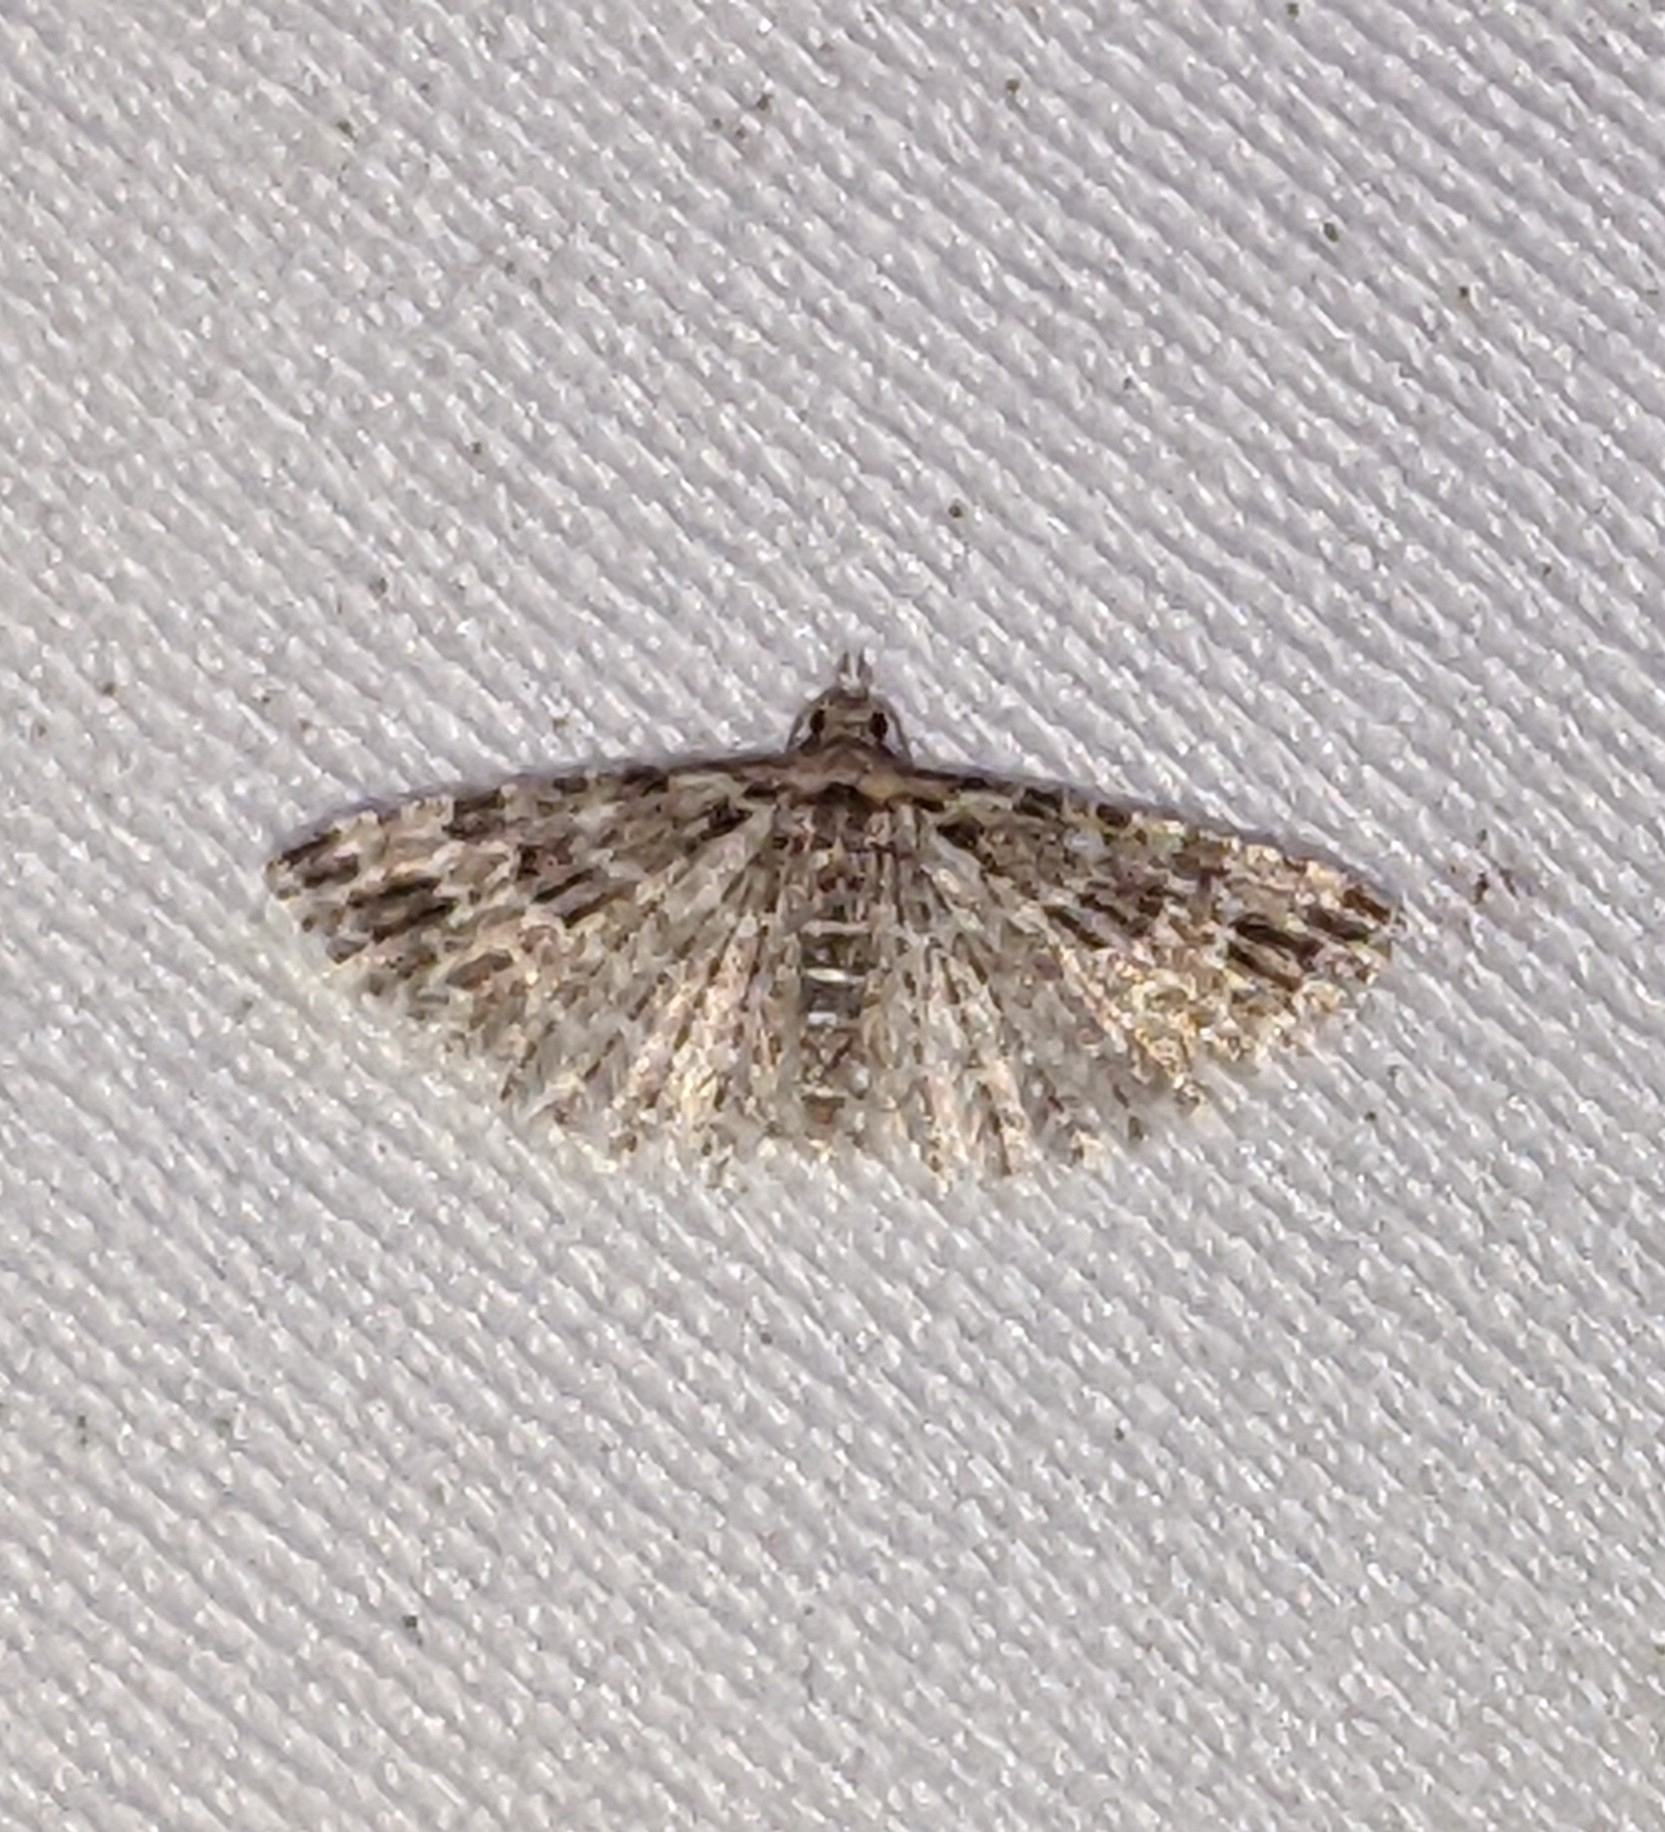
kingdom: Animalia
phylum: Arthropoda
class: Insecta
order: Lepidoptera
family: Alucitidae
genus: Alucita
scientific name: Alucita montana
